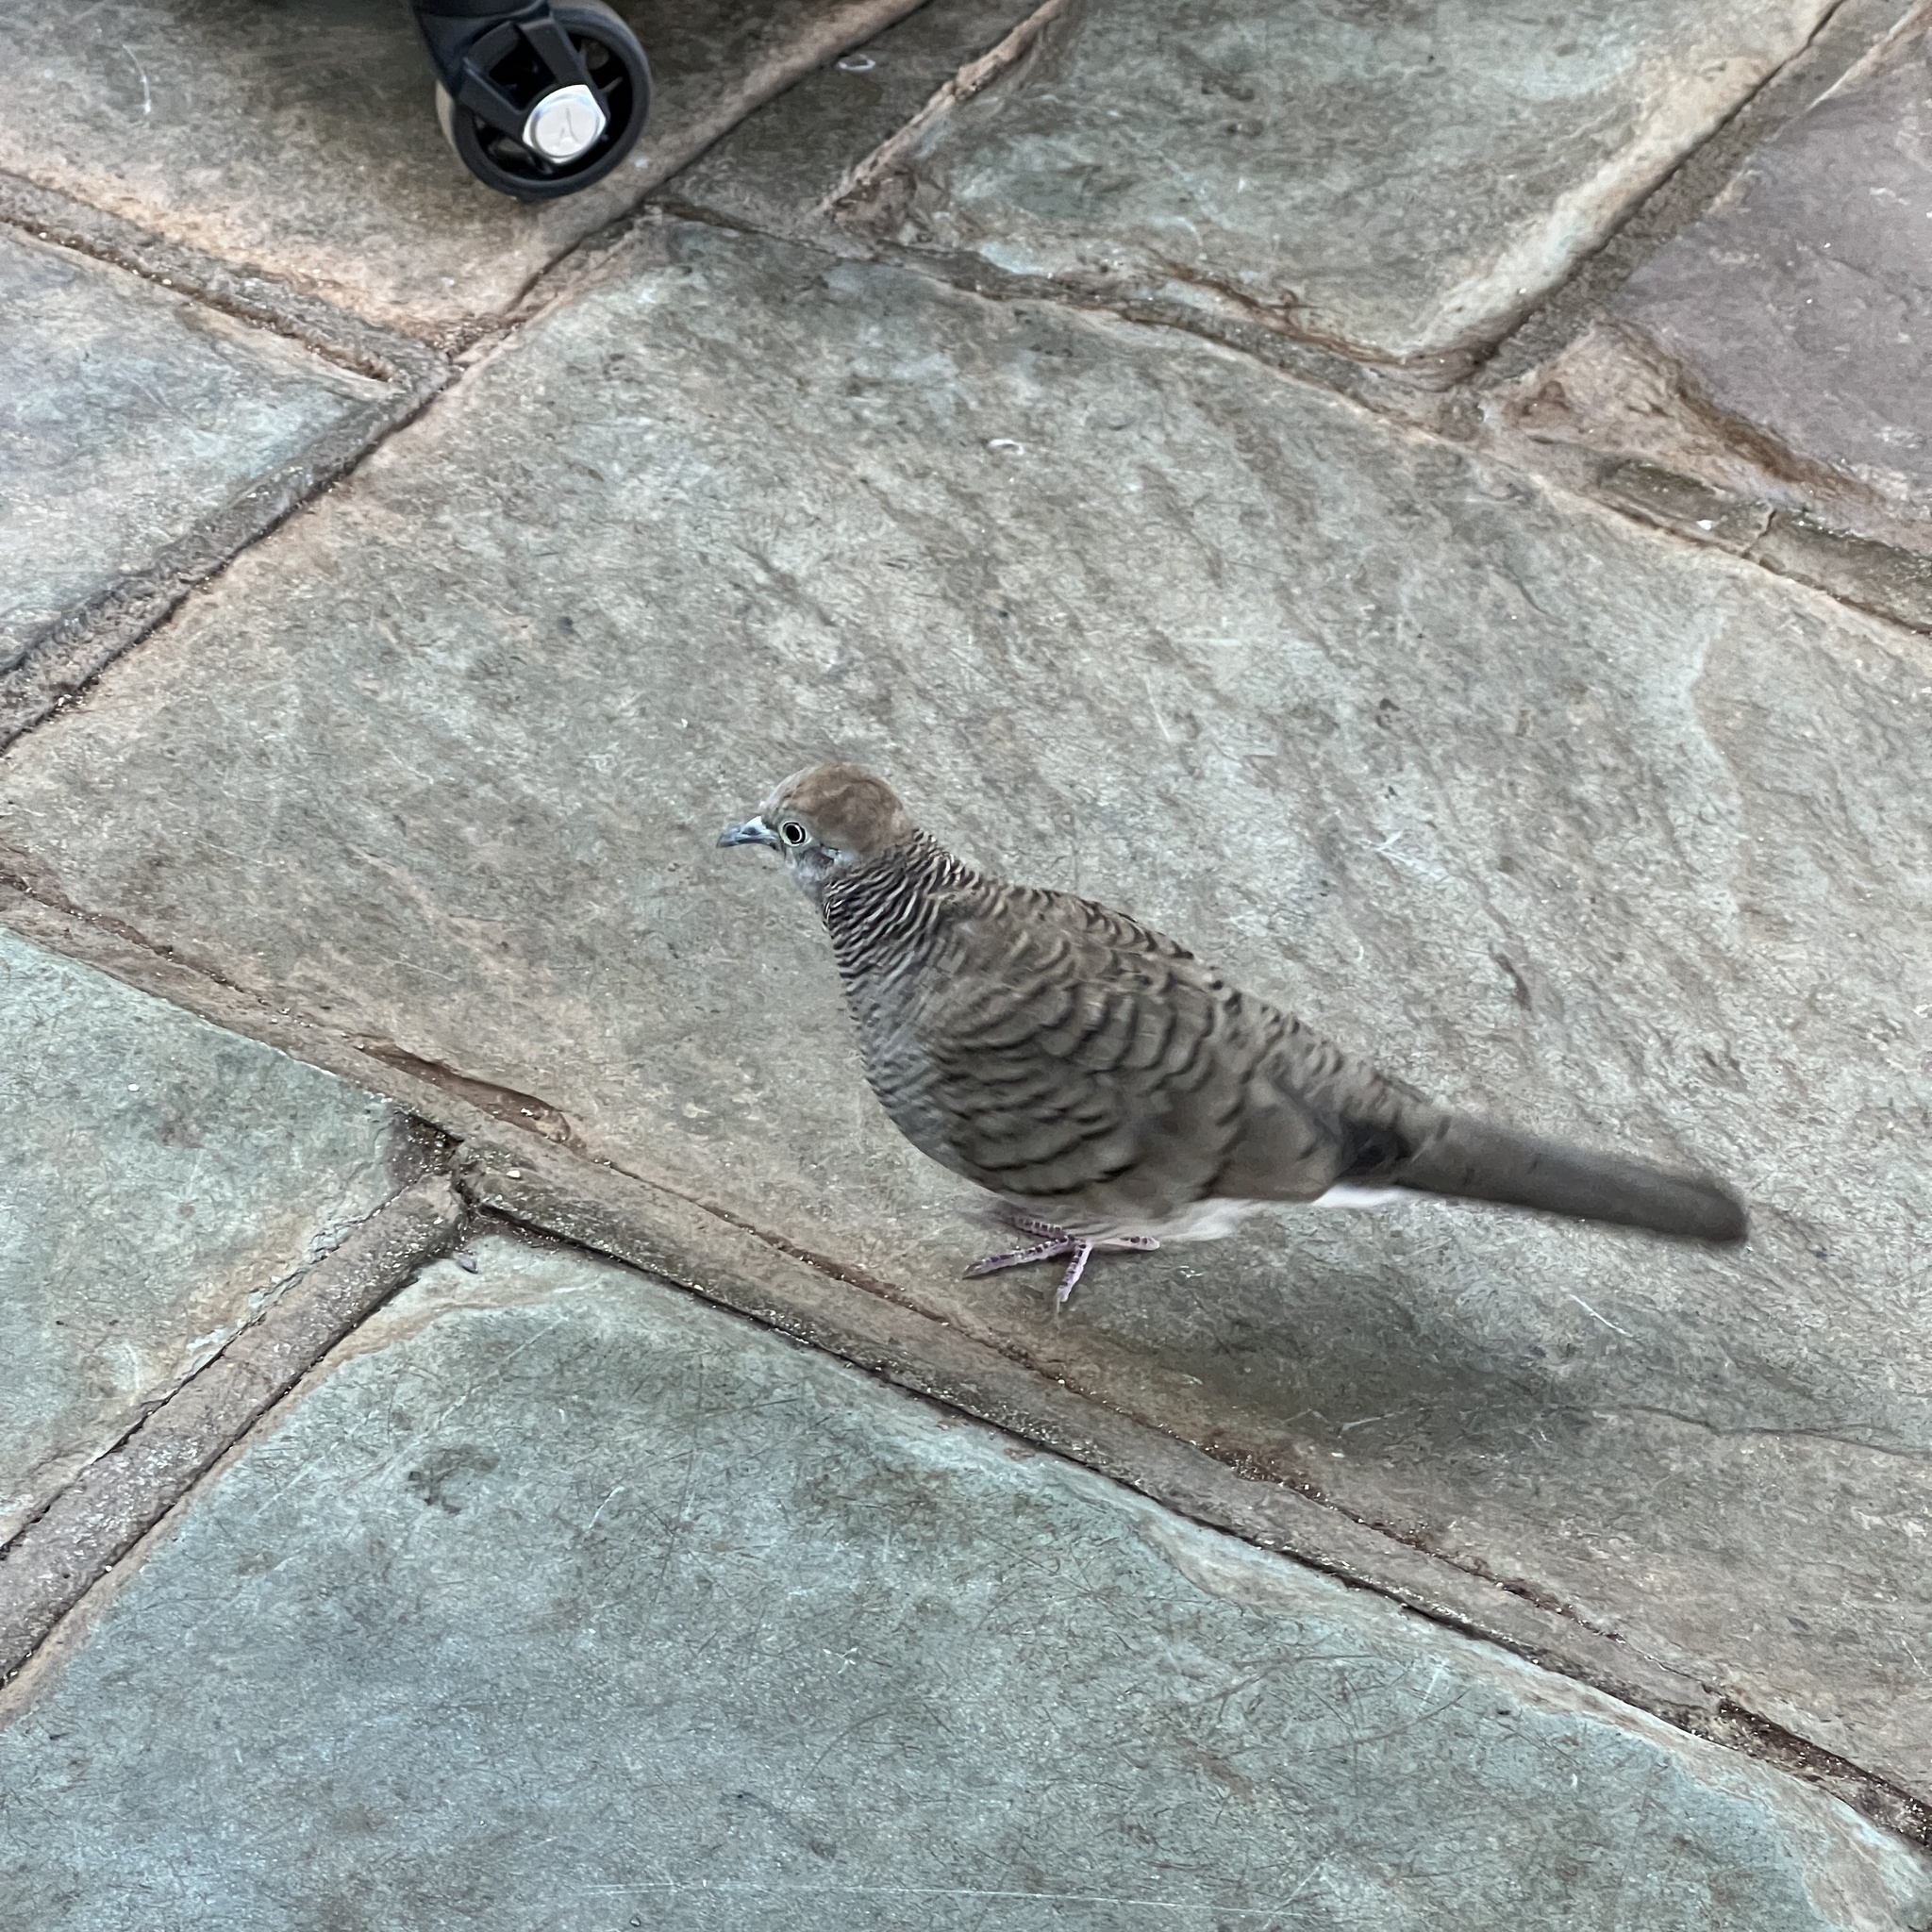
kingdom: Animalia
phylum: Chordata
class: Aves
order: Columbiformes
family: Columbidae
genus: Geopelia
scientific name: Geopelia striata
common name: Zebra dove
